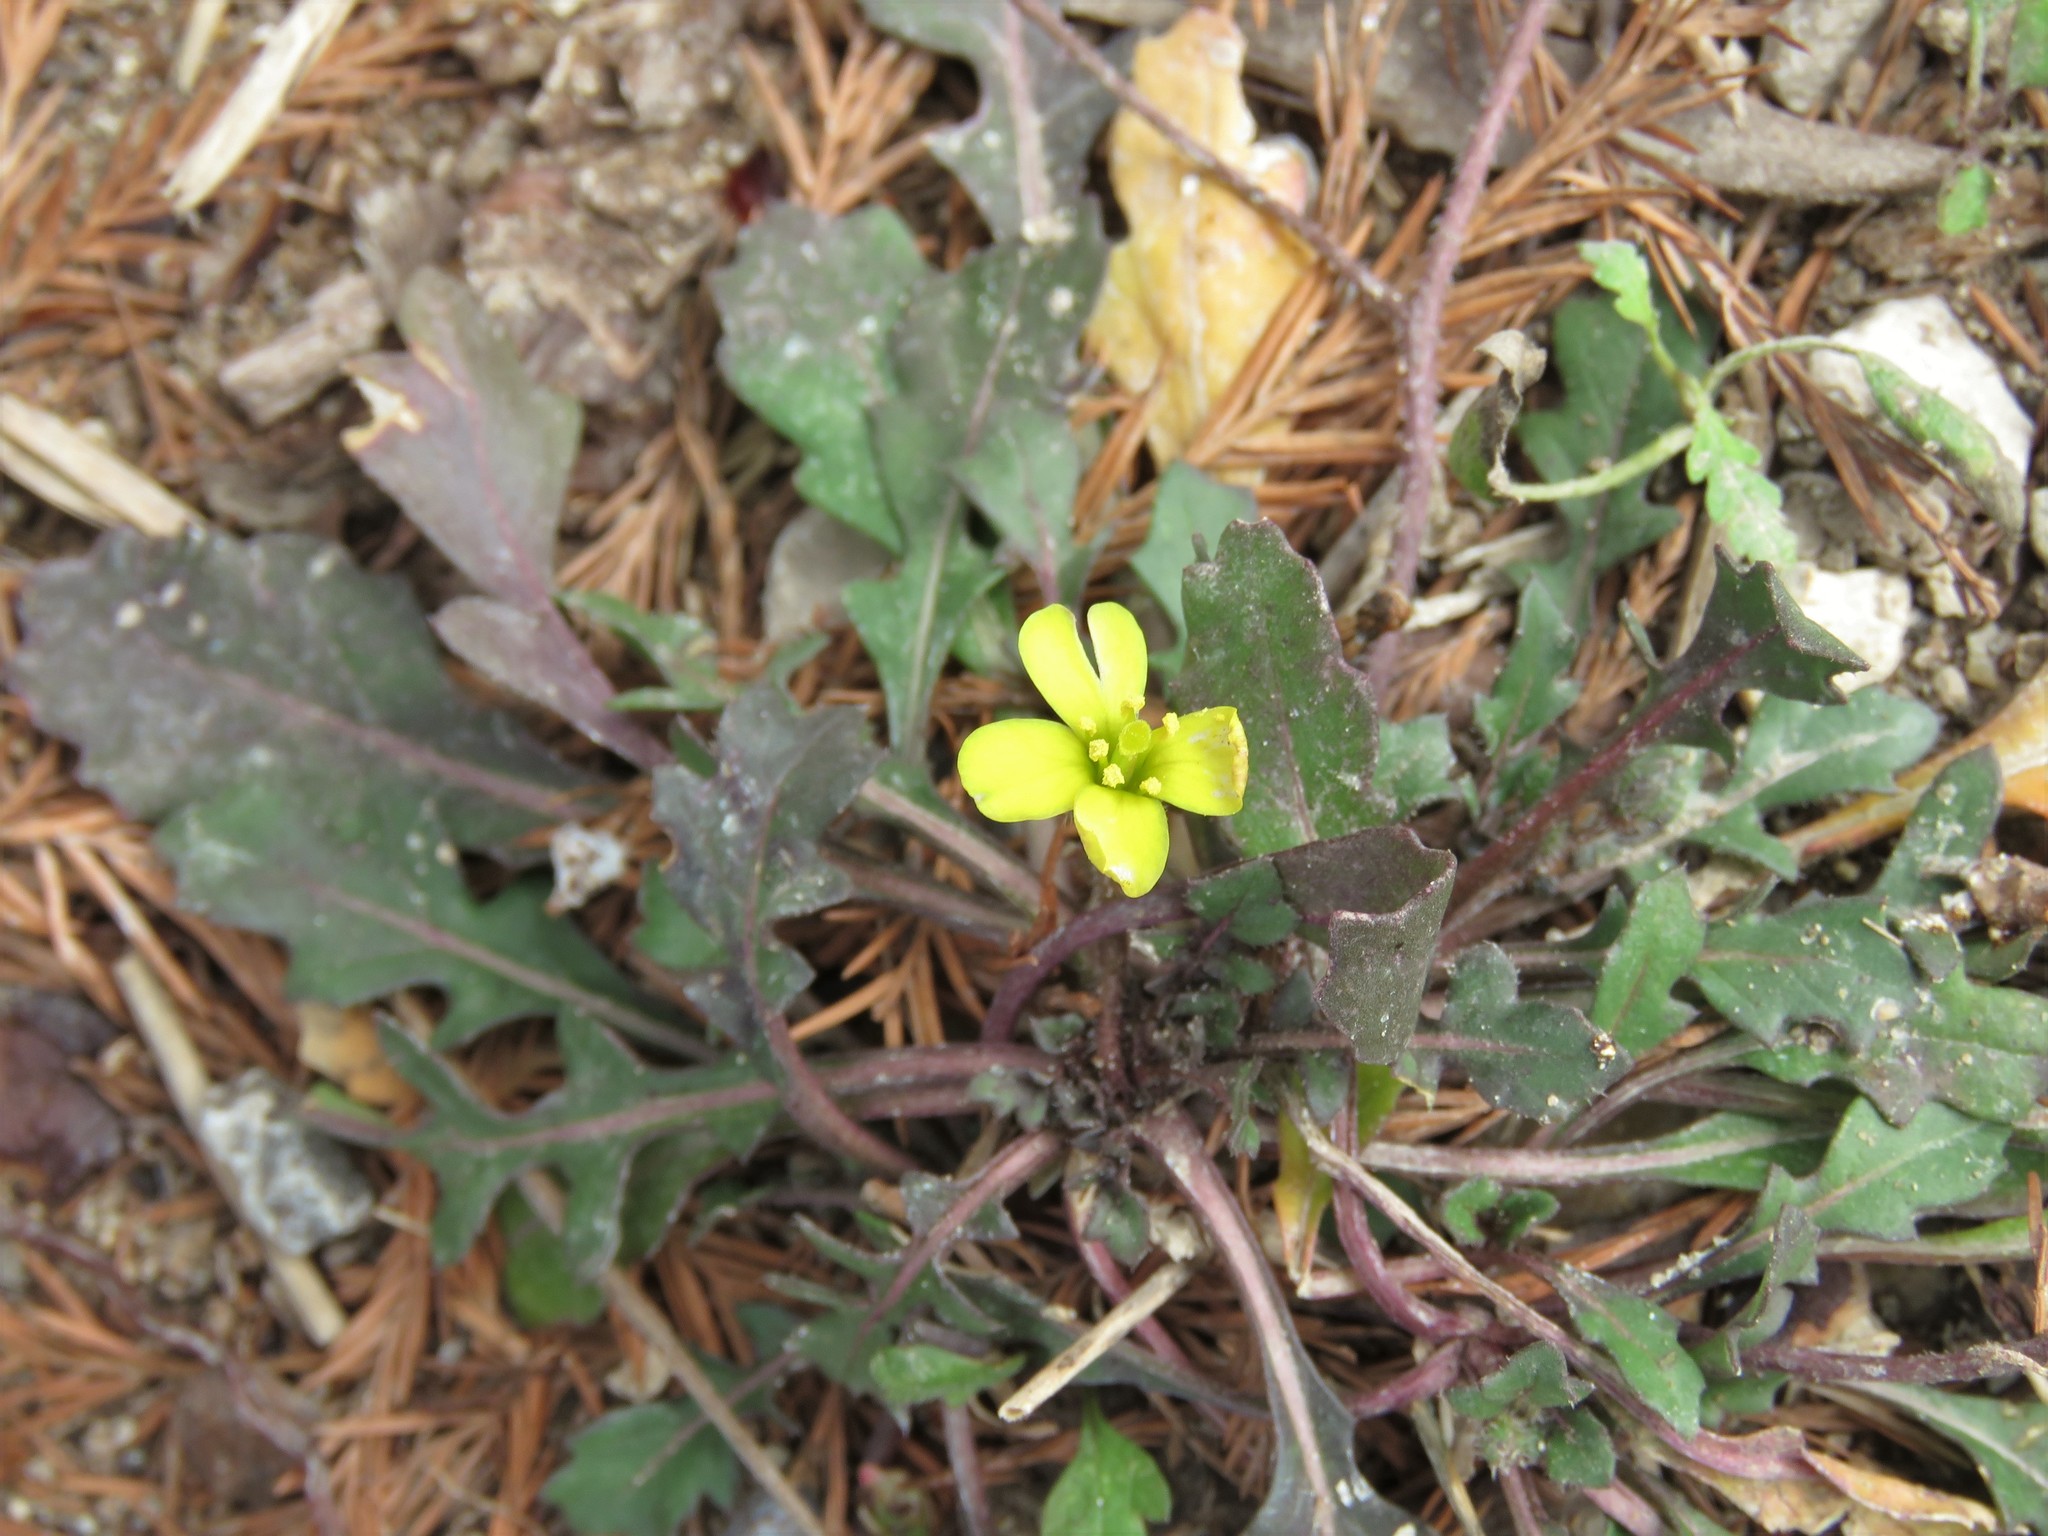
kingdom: Plantae
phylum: Tracheophyta
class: Magnoliopsida
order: Brassicales
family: Brassicaceae
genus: Diplotaxis
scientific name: Diplotaxis muralis
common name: Annual wall-rocket
